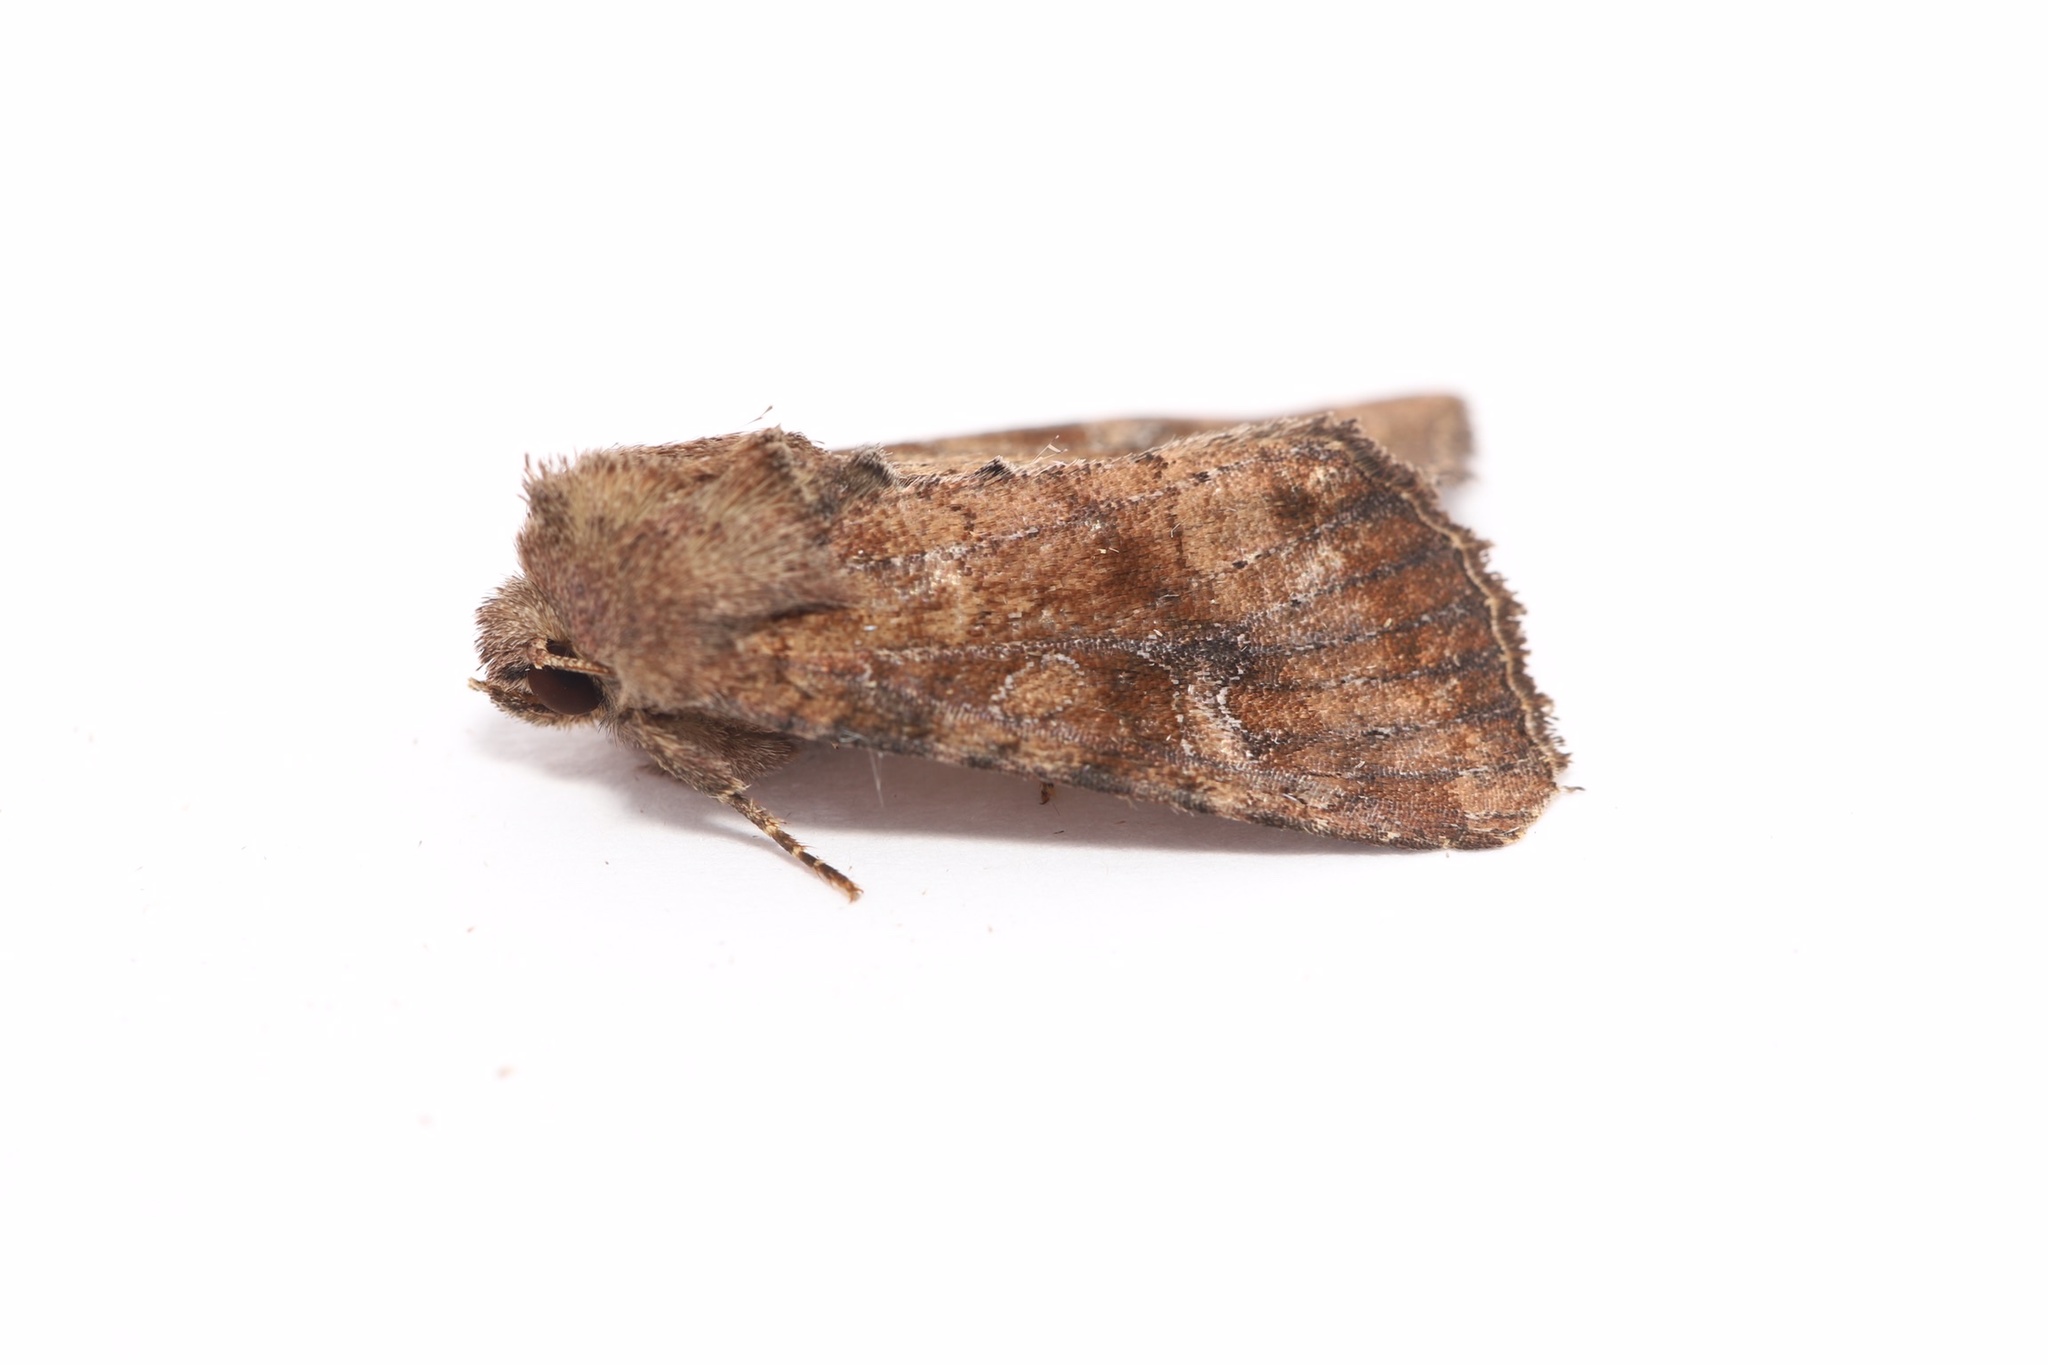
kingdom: Animalia
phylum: Arthropoda
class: Insecta
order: Lepidoptera
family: Noctuidae
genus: Loscopia
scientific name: Loscopia velata
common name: Veiled ear moth
